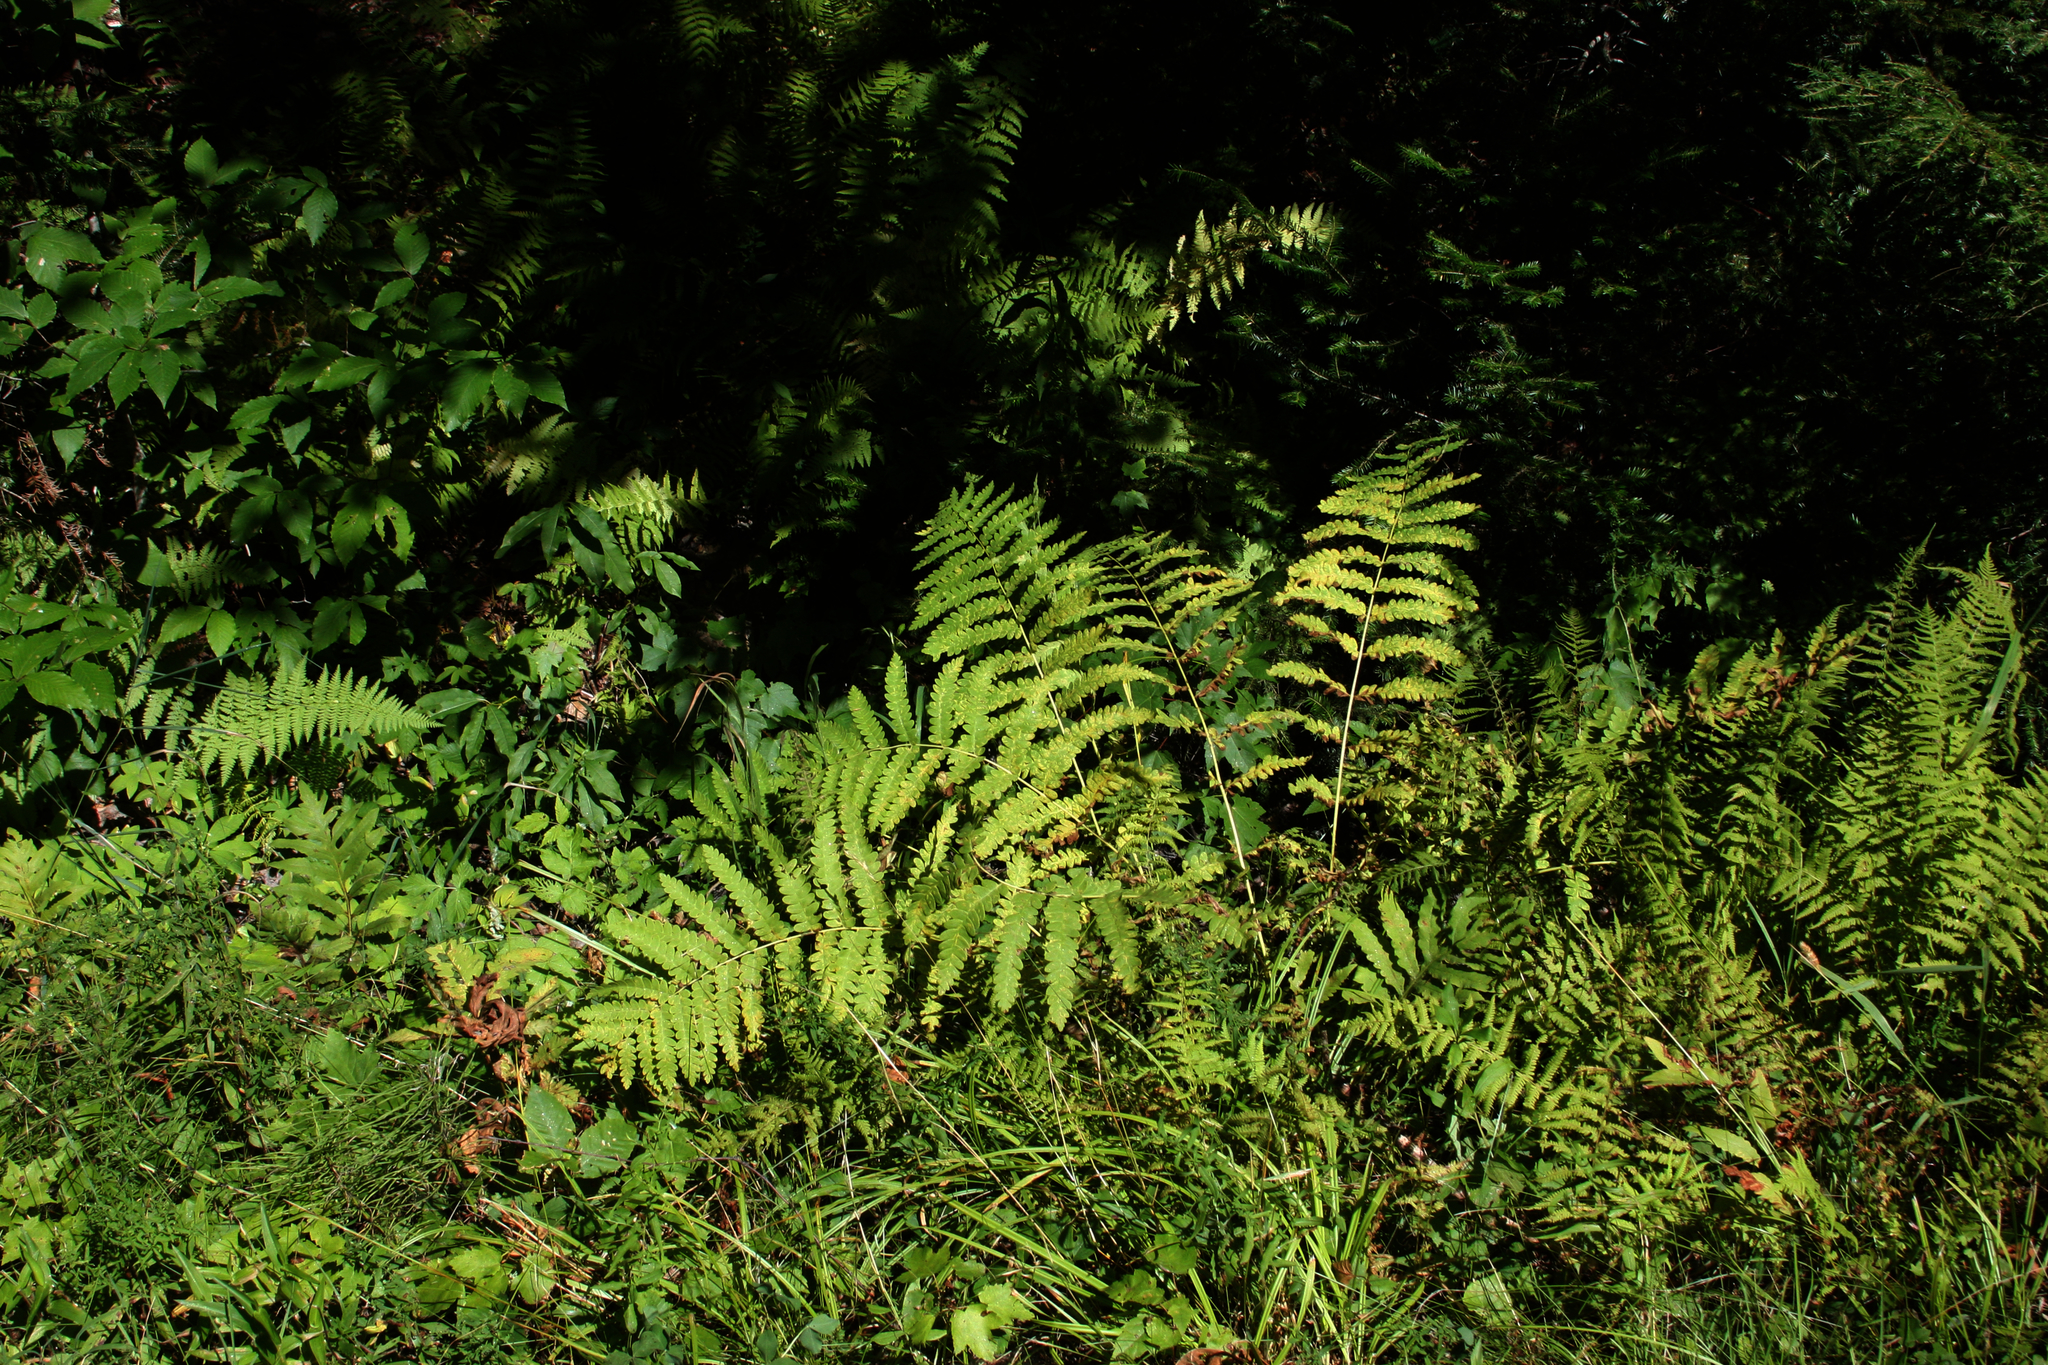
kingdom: Plantae
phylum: Tracheophyta
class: Polypodiopsida
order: Osmundales
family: Osmundaceae
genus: Claytosmunda
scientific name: Claytosmunda claytoniana
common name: Clayton's fern
